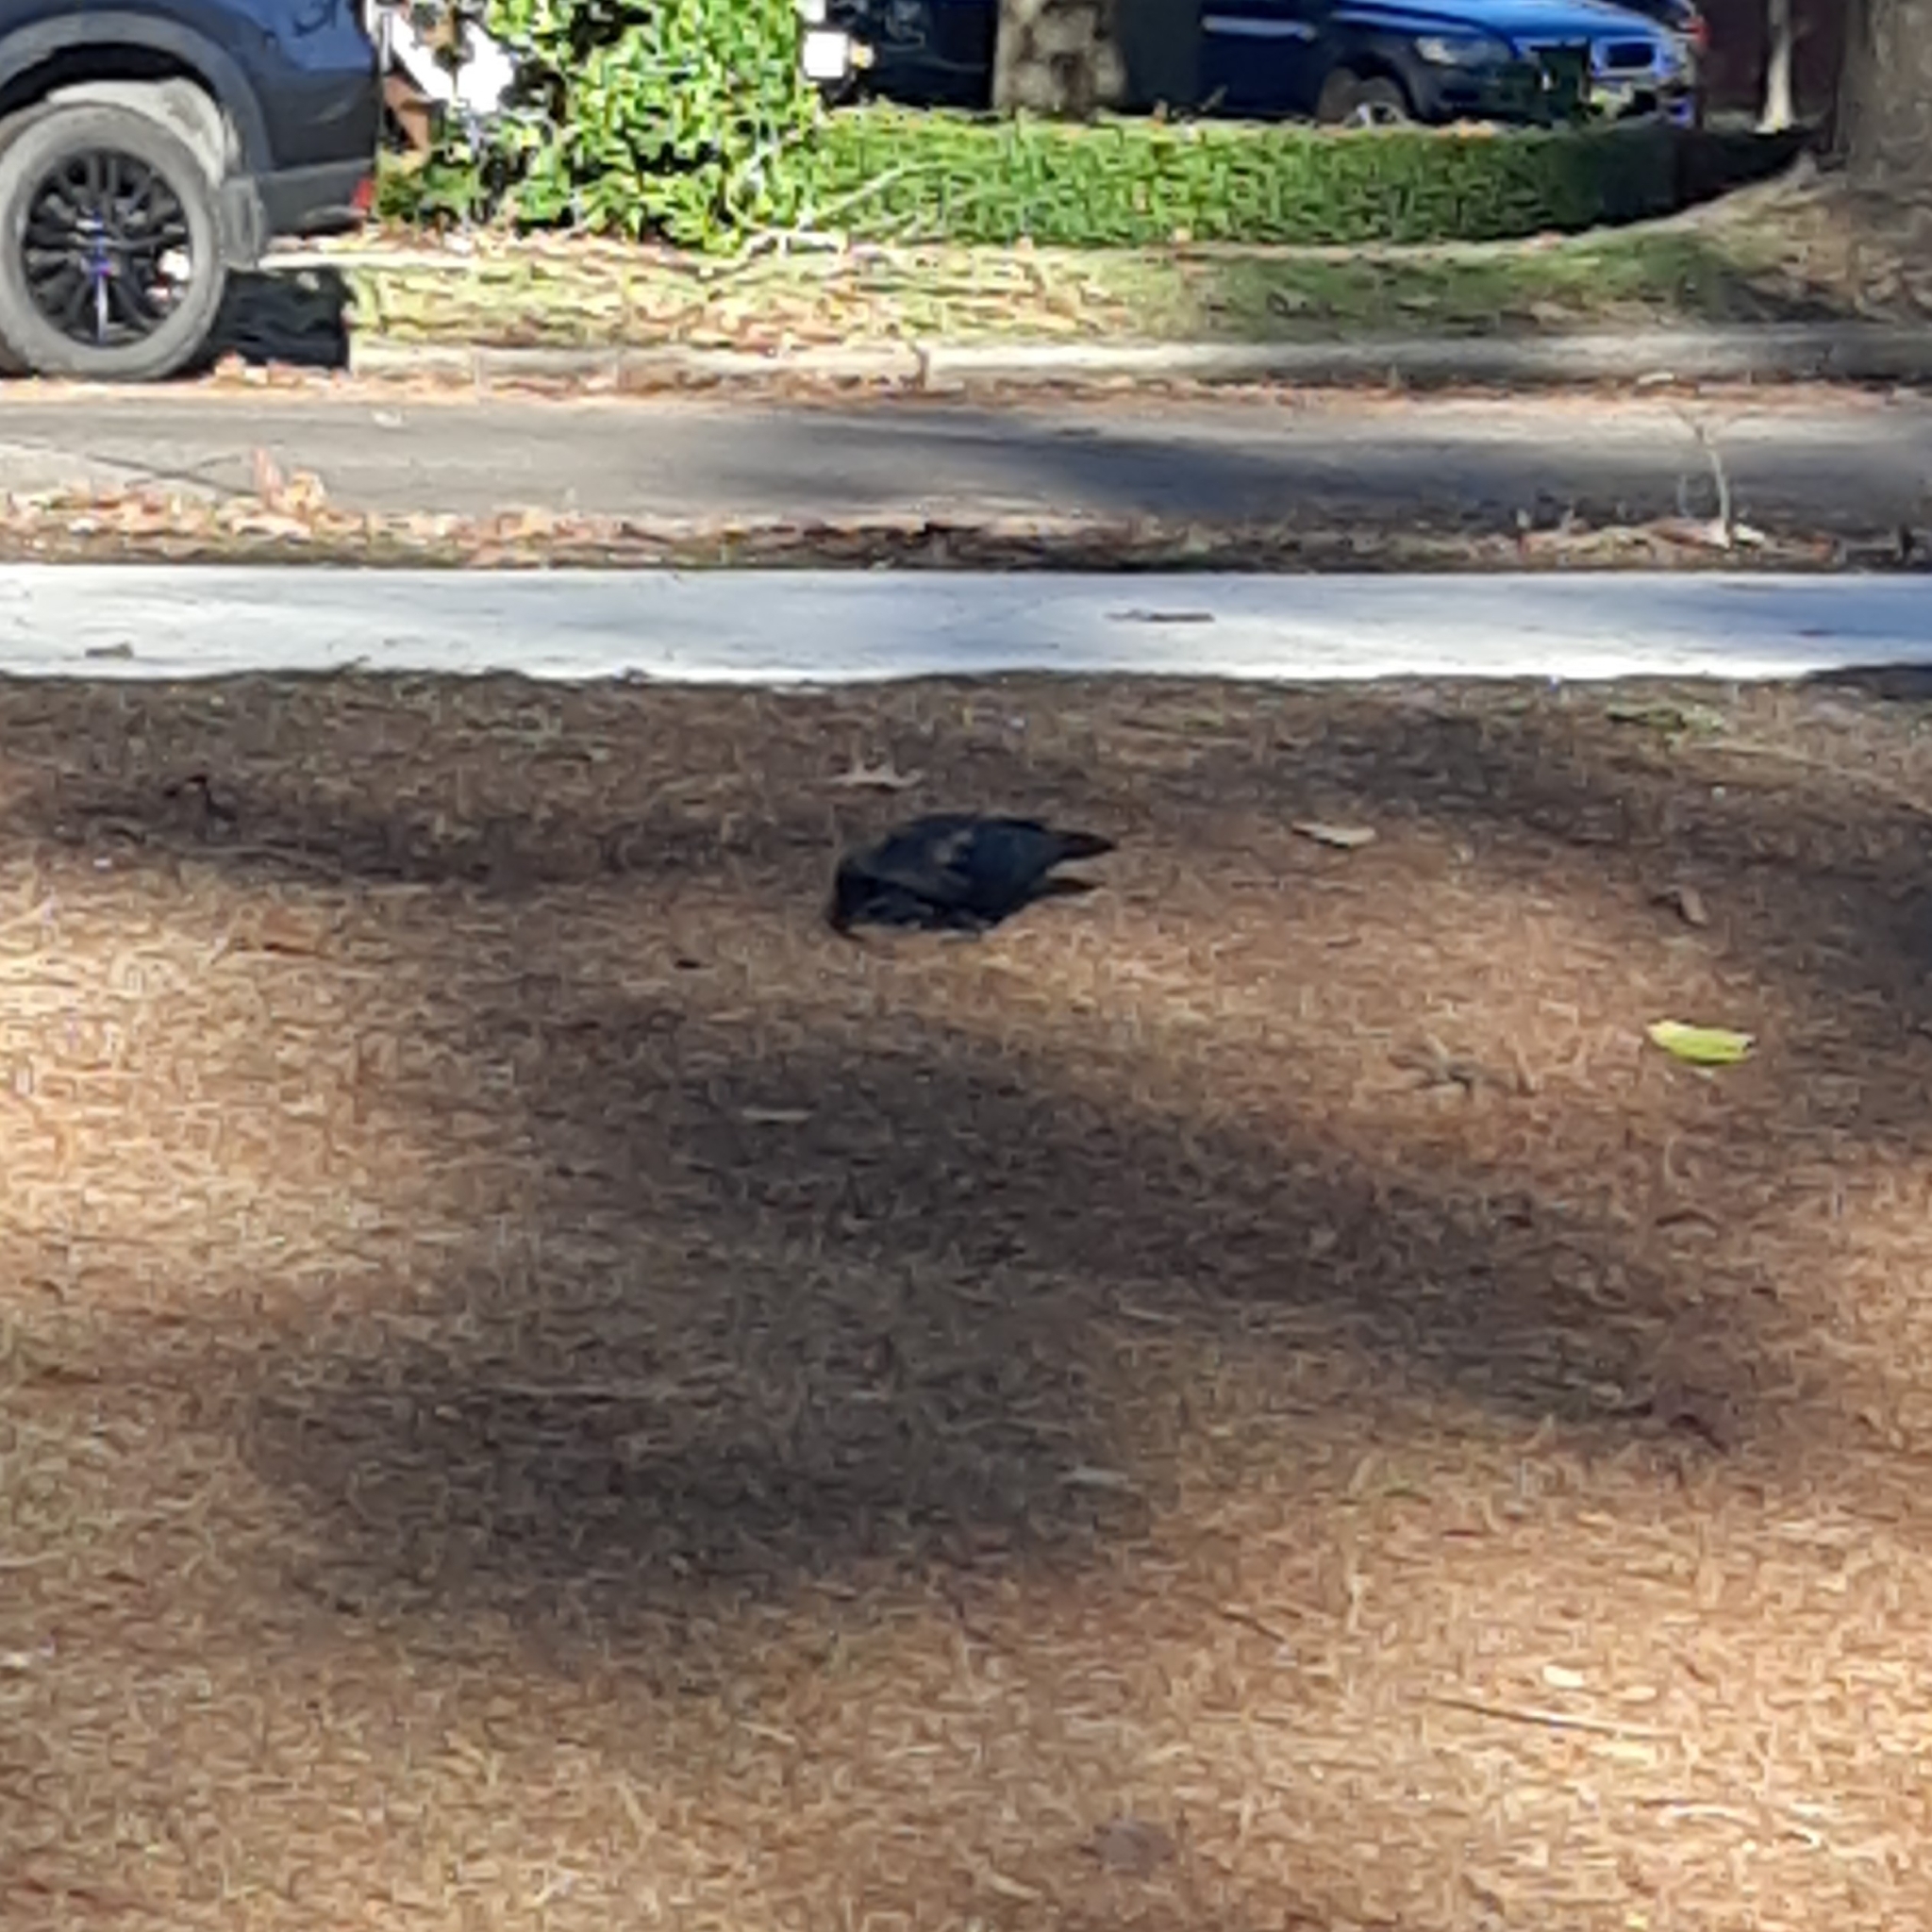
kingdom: Animalia
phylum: Chordata
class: Aves
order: Passeriformes
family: Corvidae
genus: Corvus
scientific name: Corvus brachyrhynchos
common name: American crow
